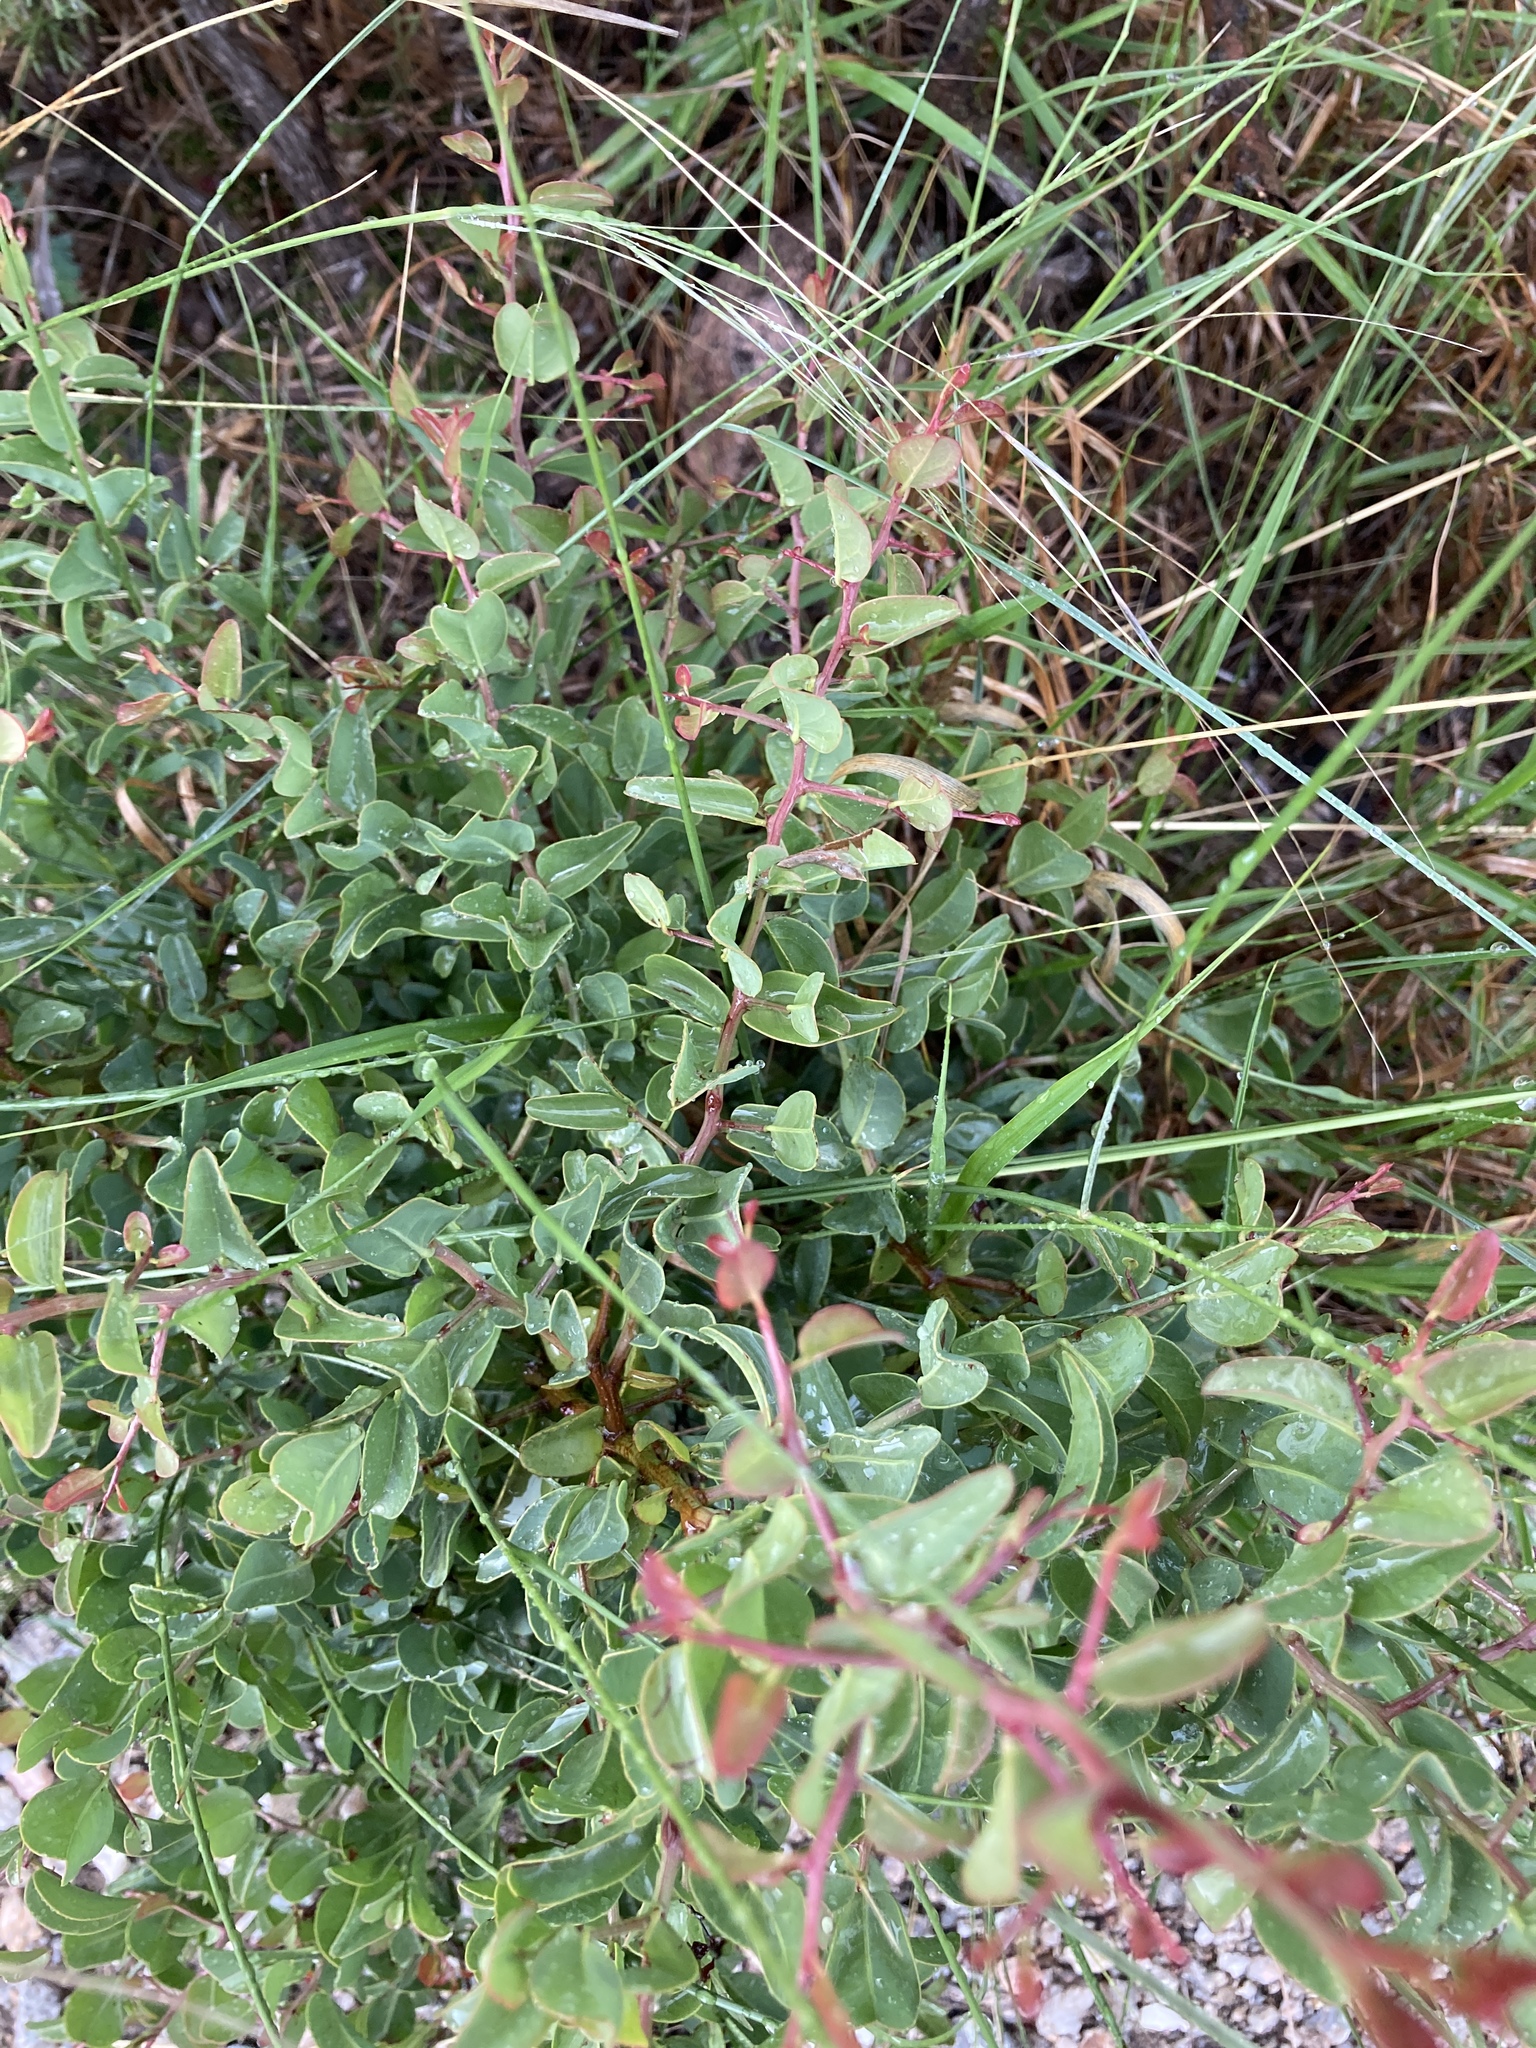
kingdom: Plantae
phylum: Tracheophyta
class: Magnoliopsida
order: Santalales
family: Ximeniaceae
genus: Ximenia
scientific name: Ximenia americana
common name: Tallowwood
